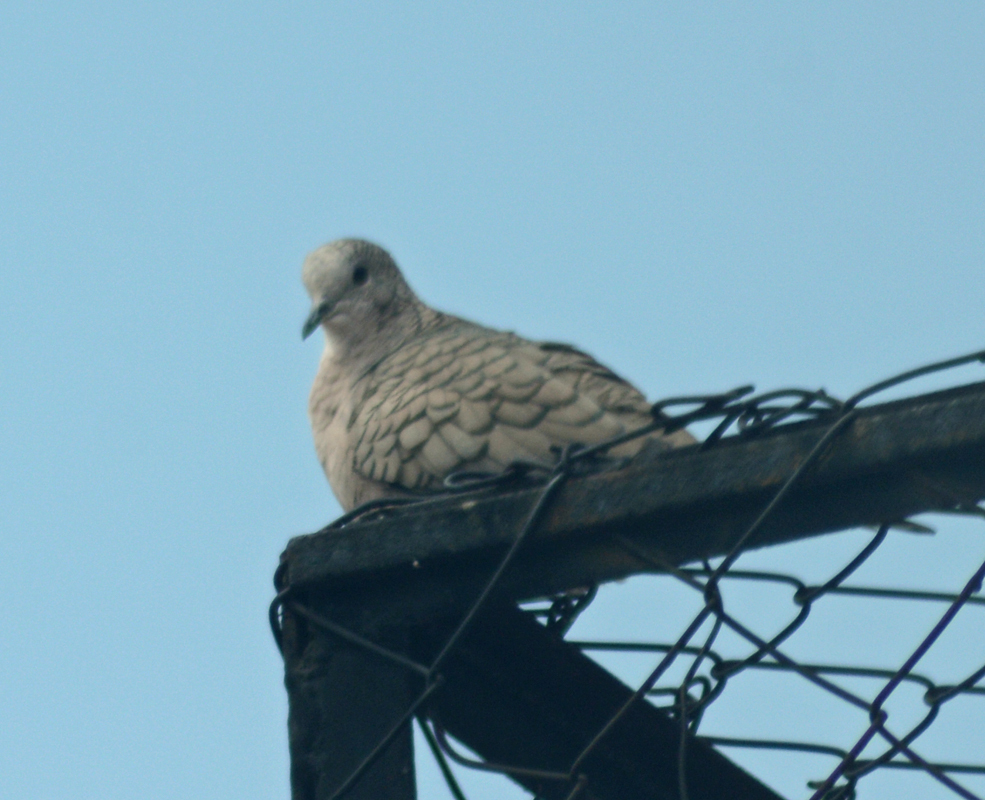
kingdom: Animalia
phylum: Chordata
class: Aves
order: Columbiformes
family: Columbidae
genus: Columbina
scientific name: Columbina inca
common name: Inca dove
